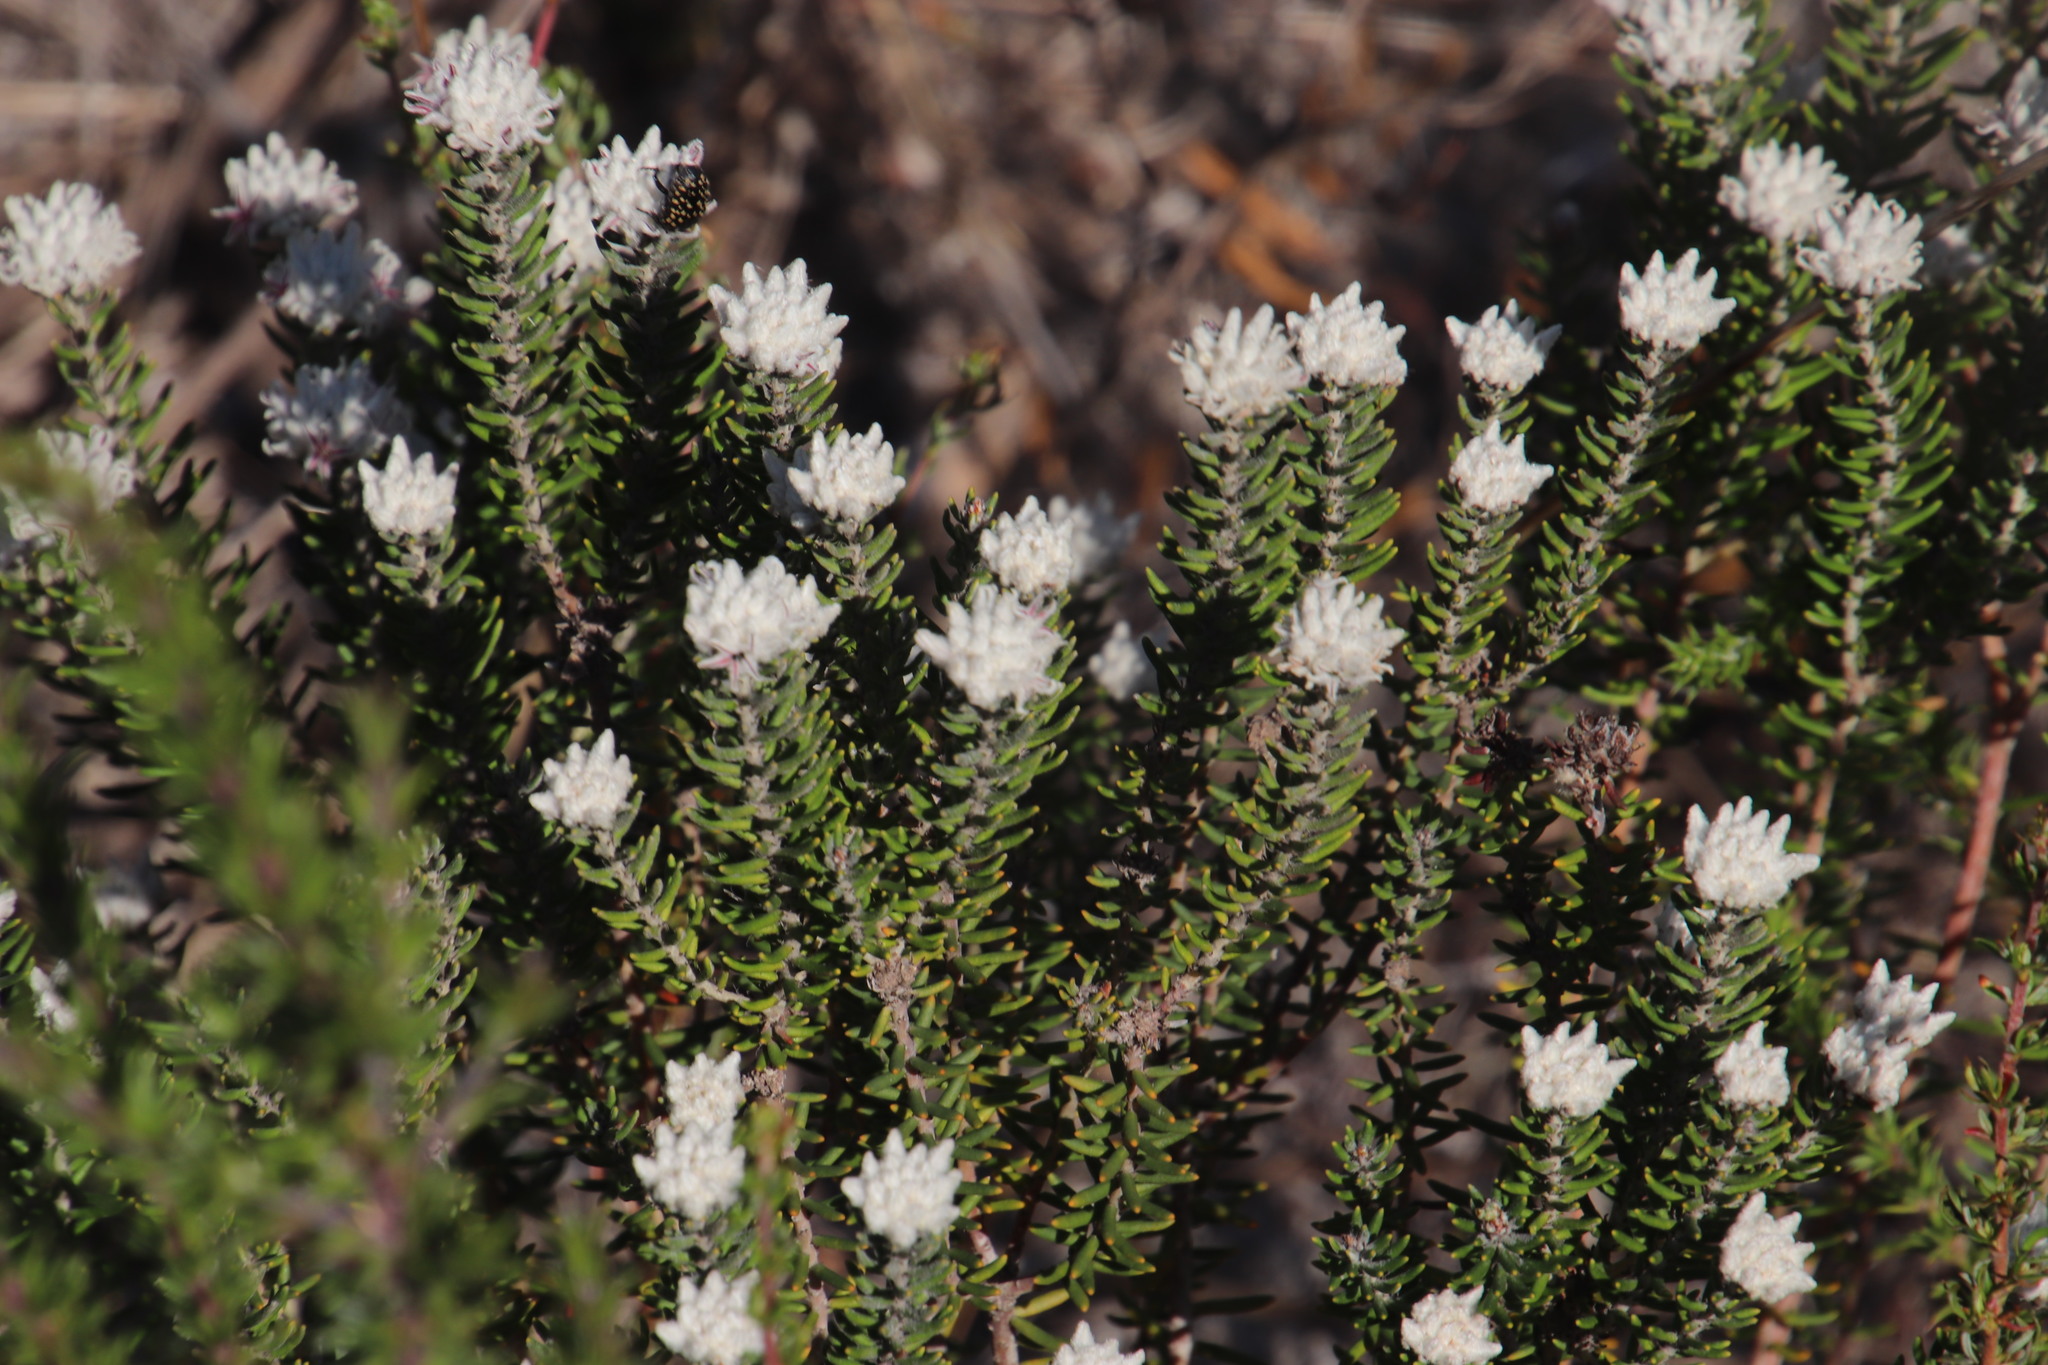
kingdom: Plantae
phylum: Tracheophyta
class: Magnoliopsida
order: Rosales
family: Rhamnaceae
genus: Trichocephalus
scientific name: Trichocephalus stipularis
